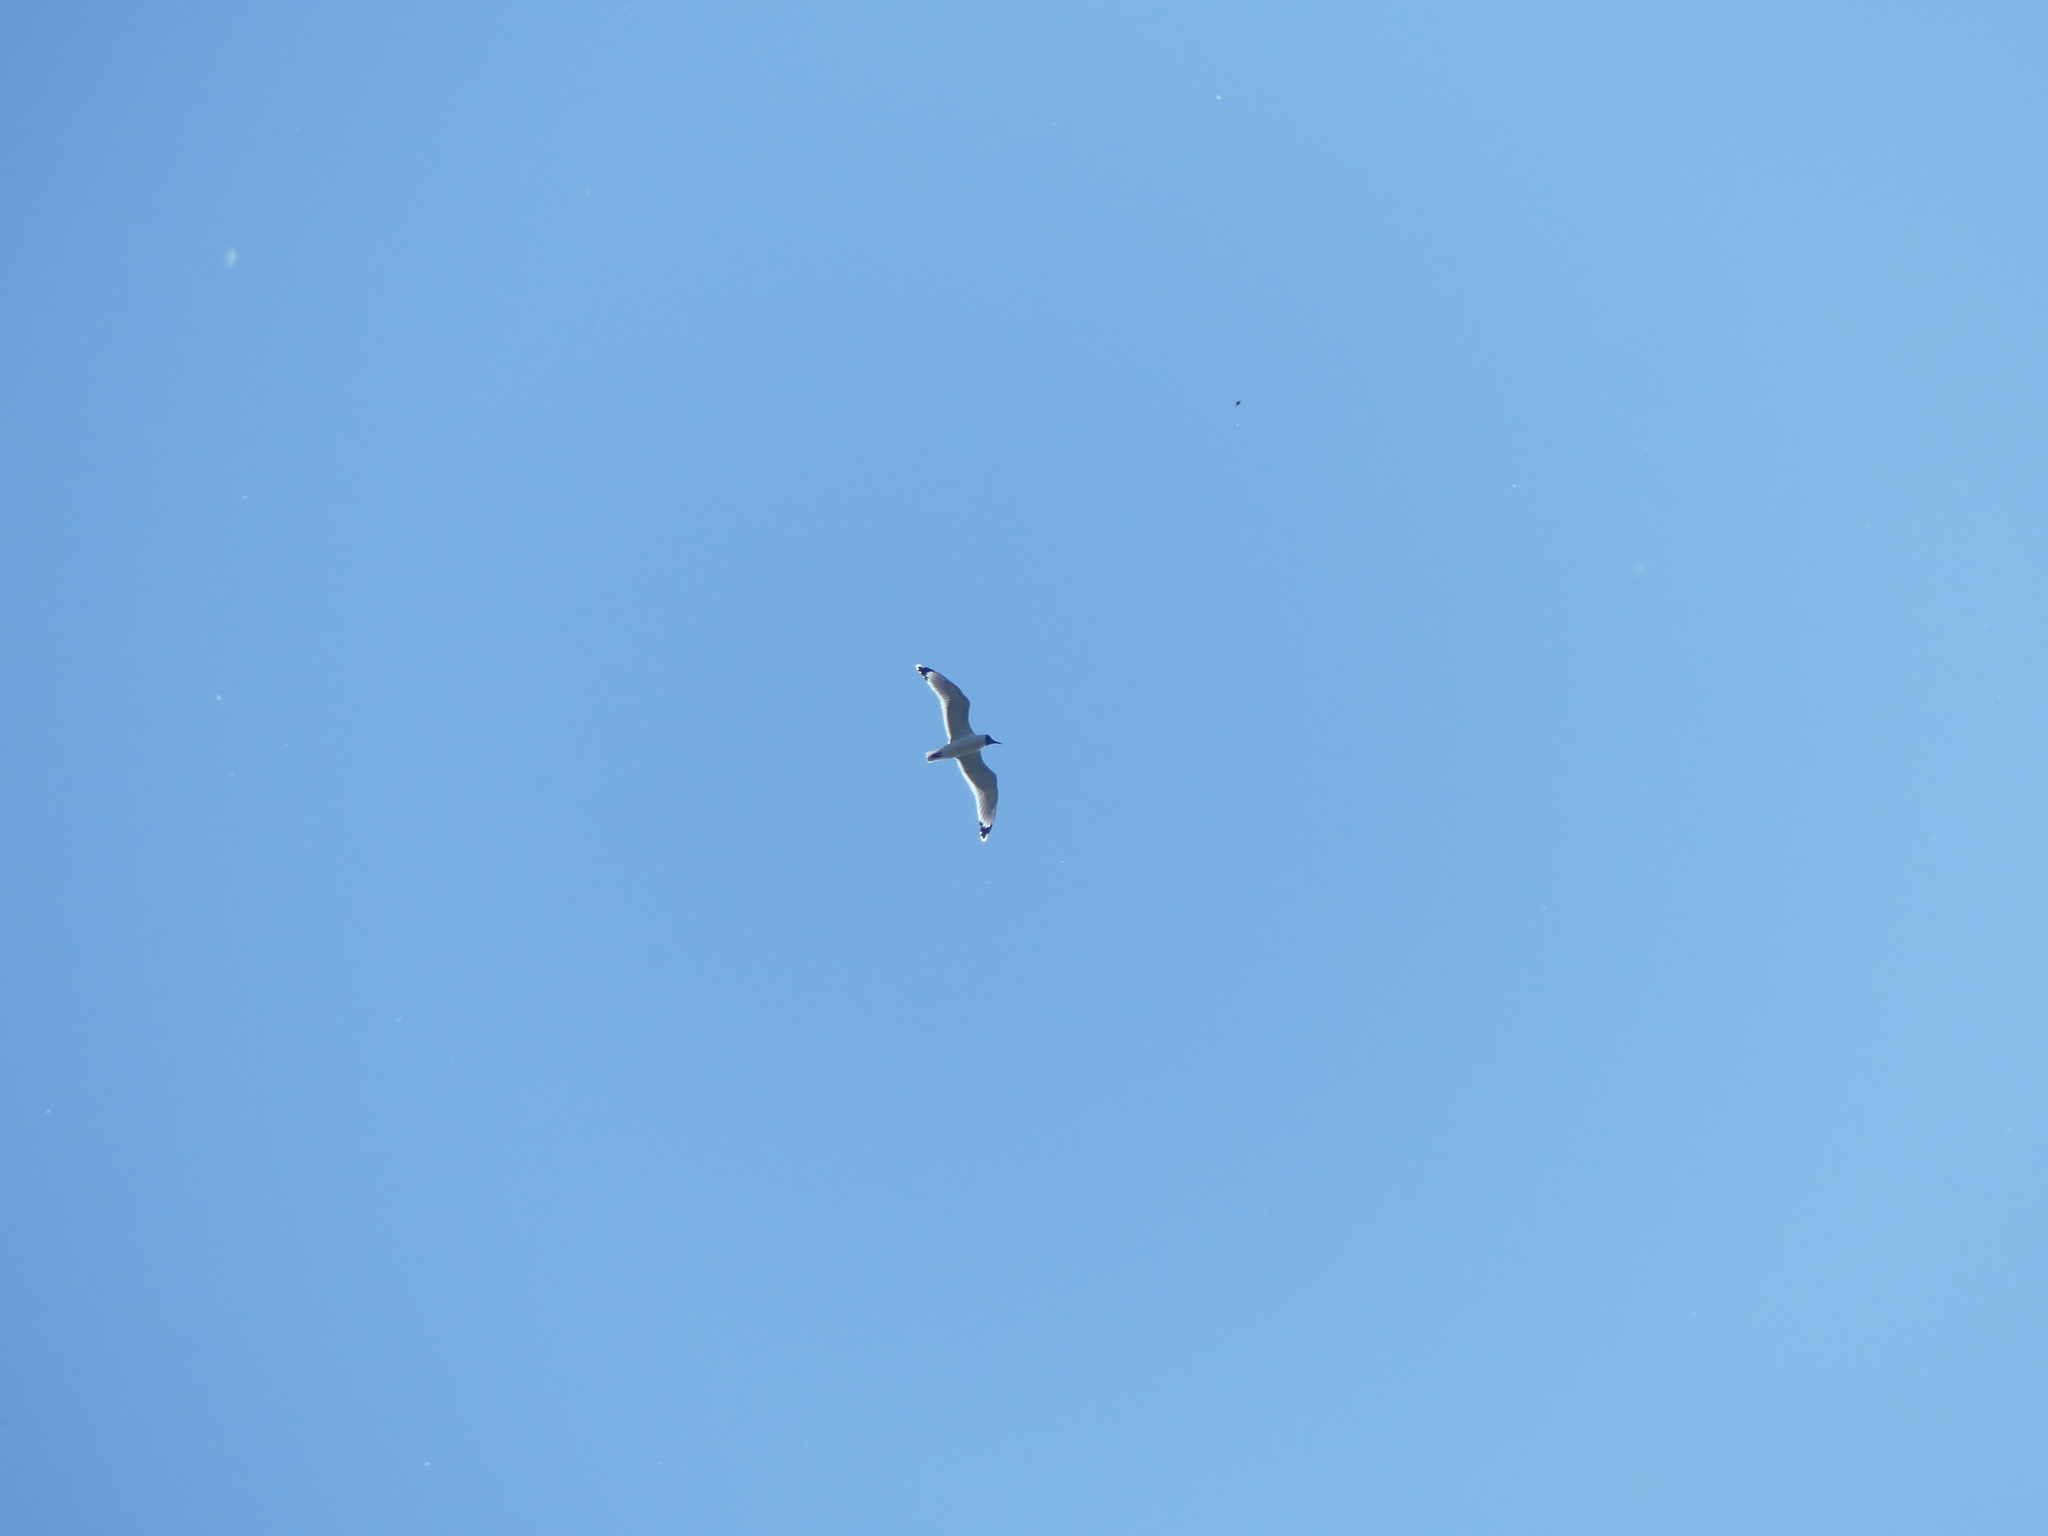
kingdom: Animalia
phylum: Chordata
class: Aves
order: Charadriiformes
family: Laridae
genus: Leucophaeus
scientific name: Leucophaeus pipixcan
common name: Franklin's gull
